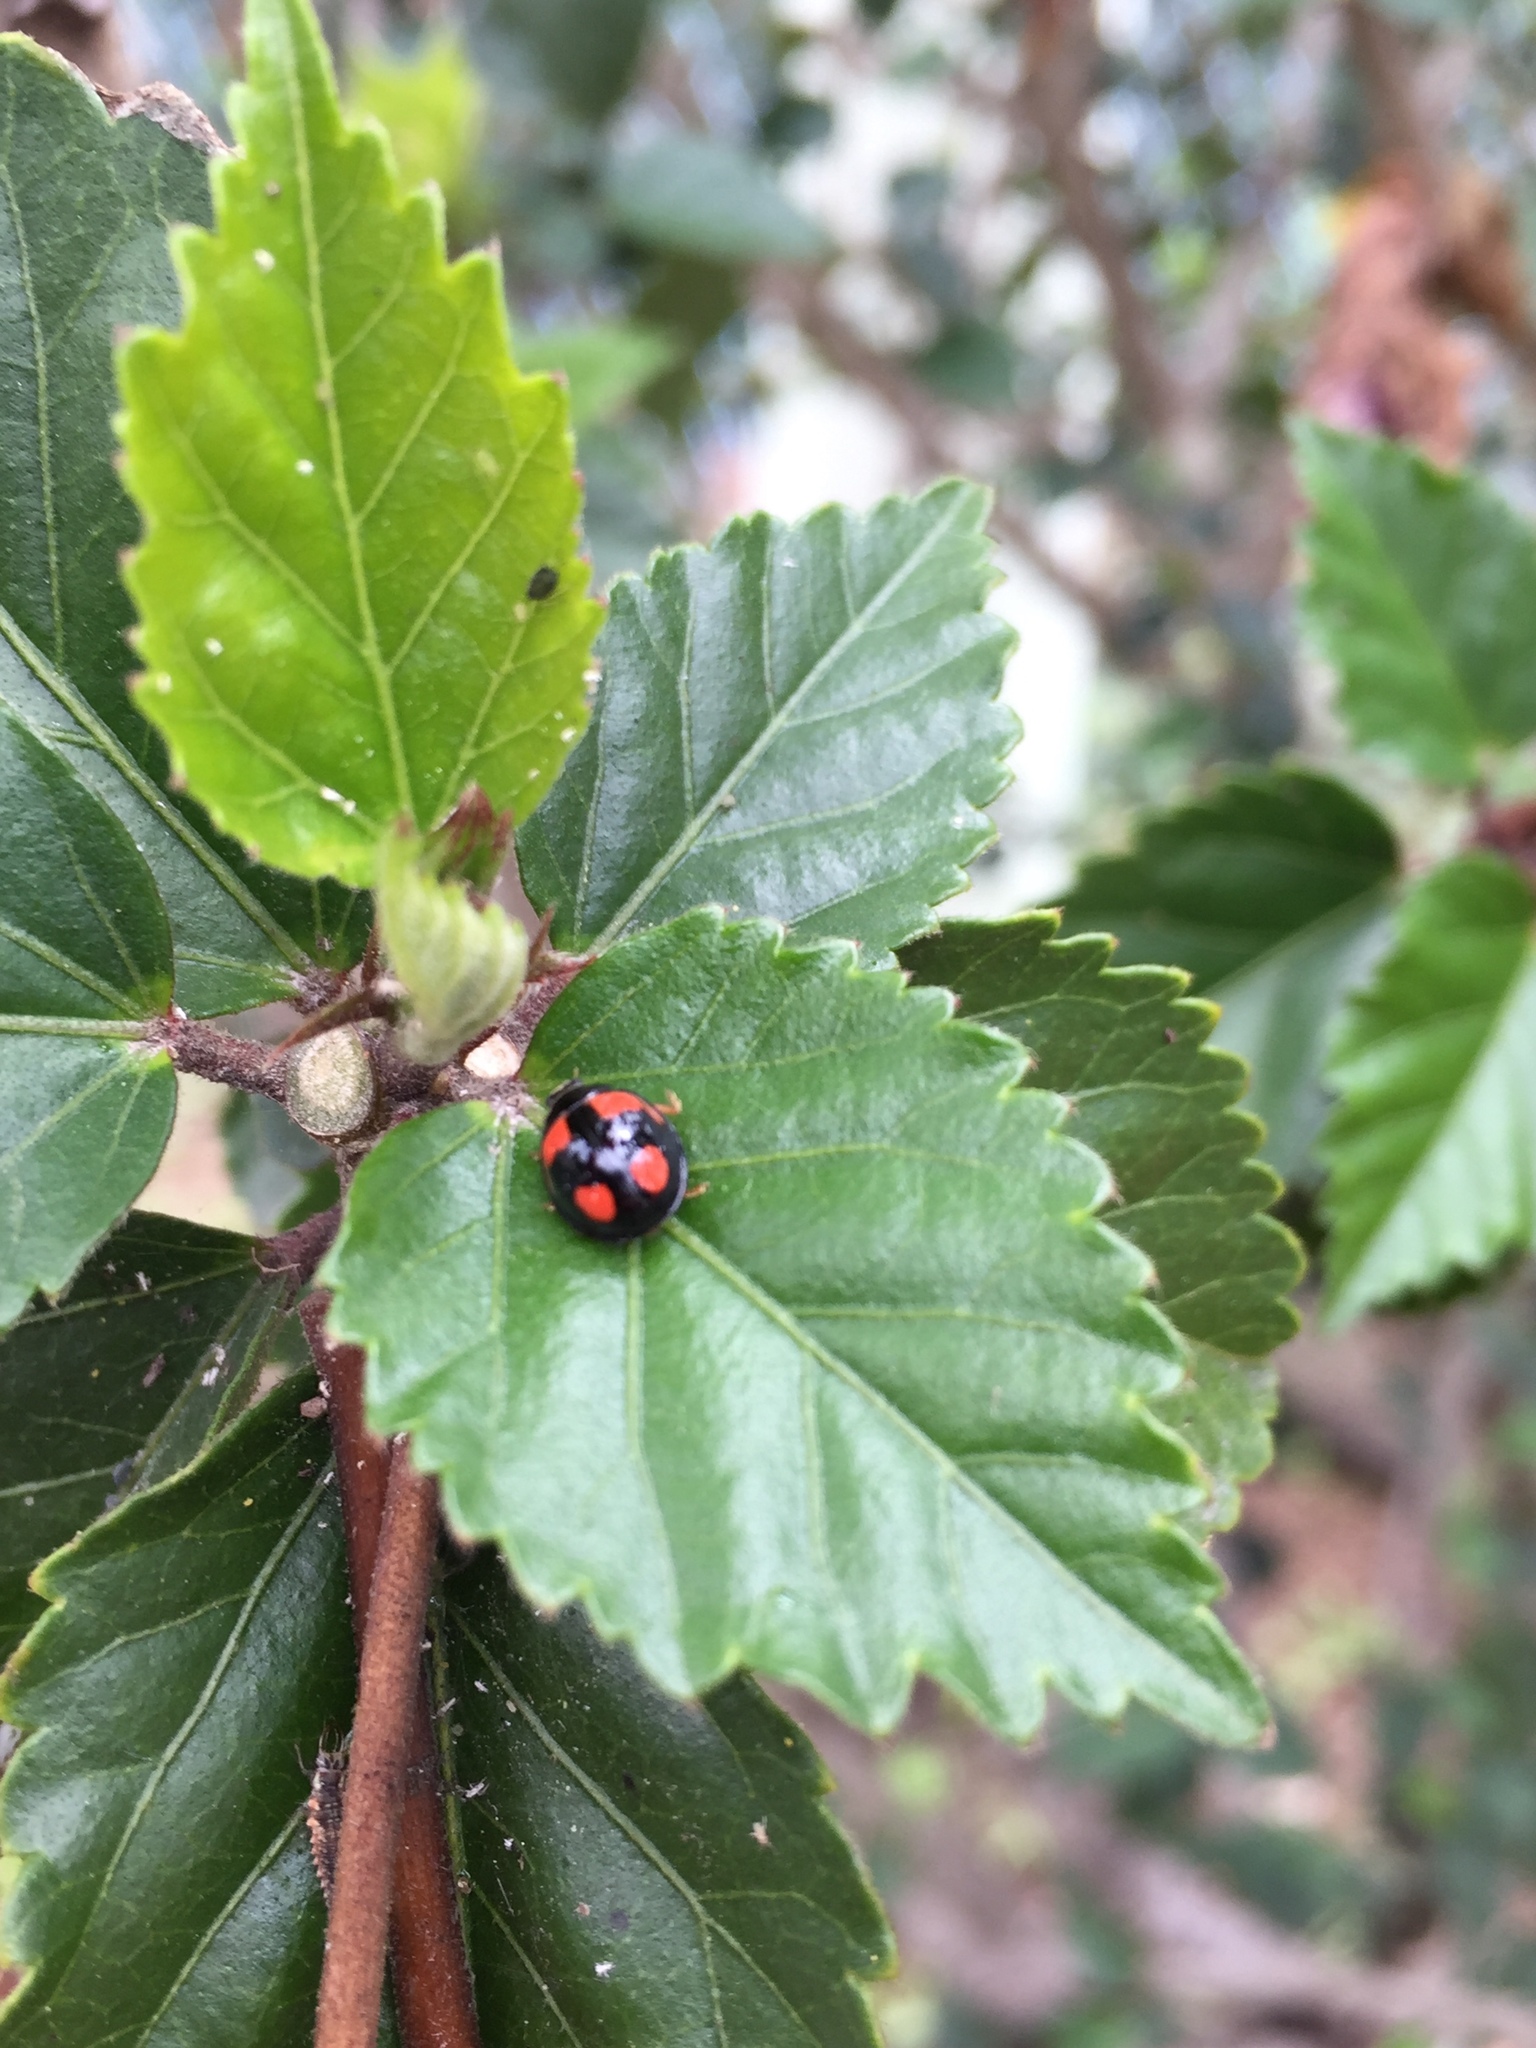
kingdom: Animalia
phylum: Arthropoda
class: Insecta
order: Coleoptera
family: Coccinellidae
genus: Cheilomenes
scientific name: Cheilomenes sexmaculata
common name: Ladybird beetle
